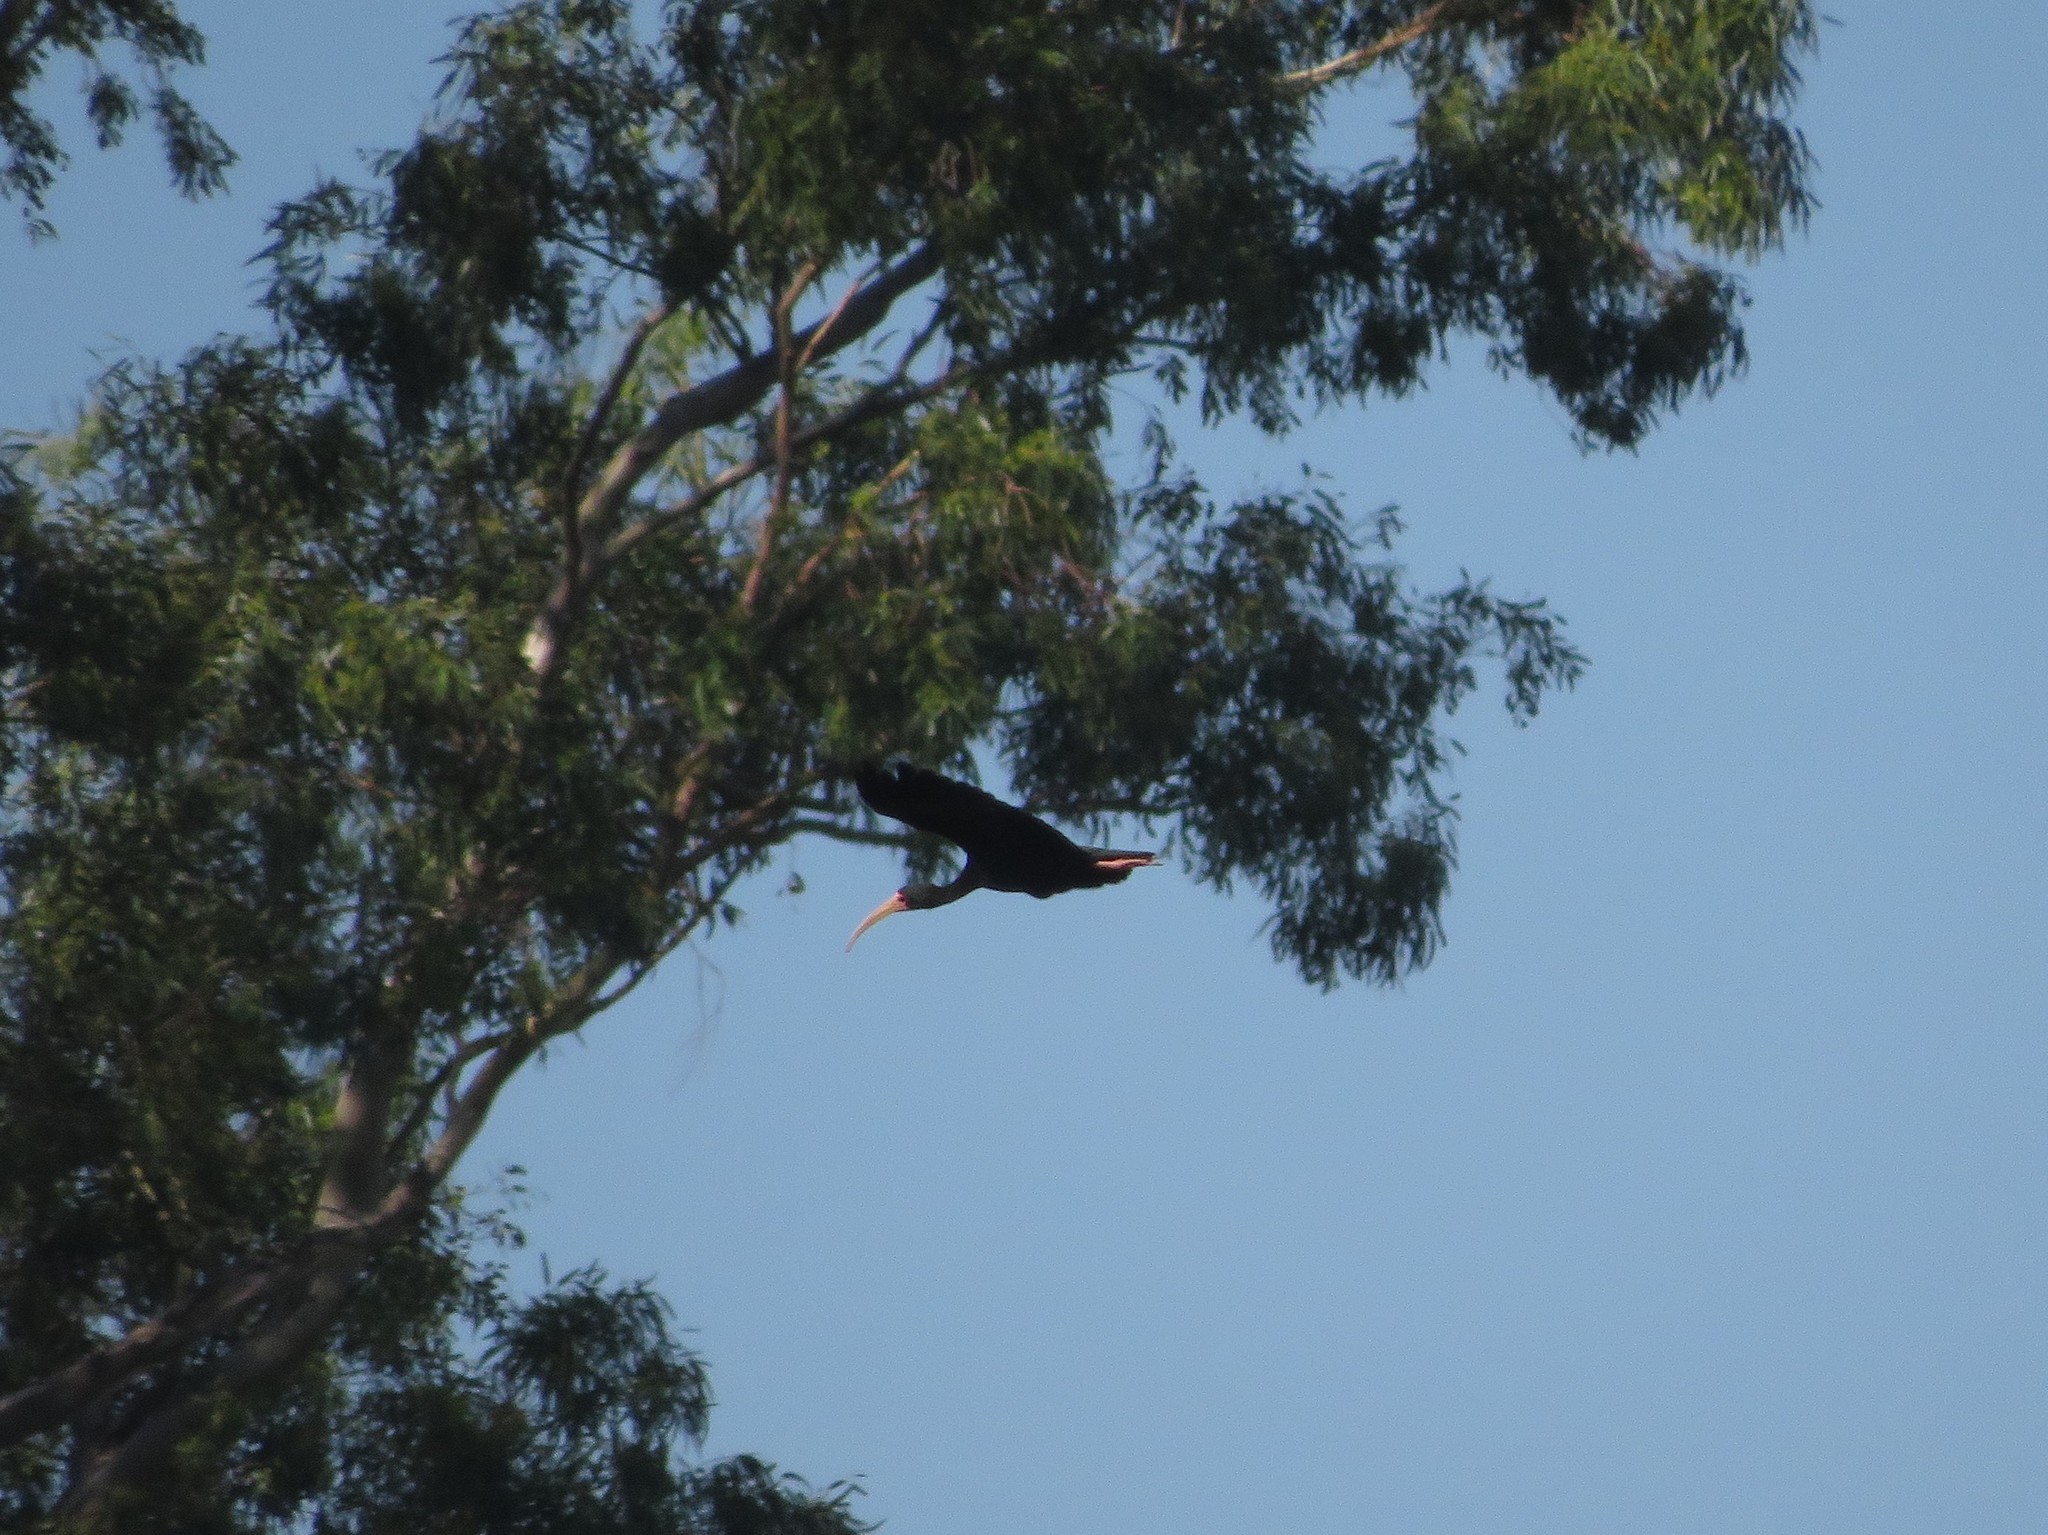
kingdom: Animalia
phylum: Chordata
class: Aves
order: Pelecaniformes
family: Threskiornithidae
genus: Phimosus
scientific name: Phimosus infuscatus
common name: Bare-faced ibis
